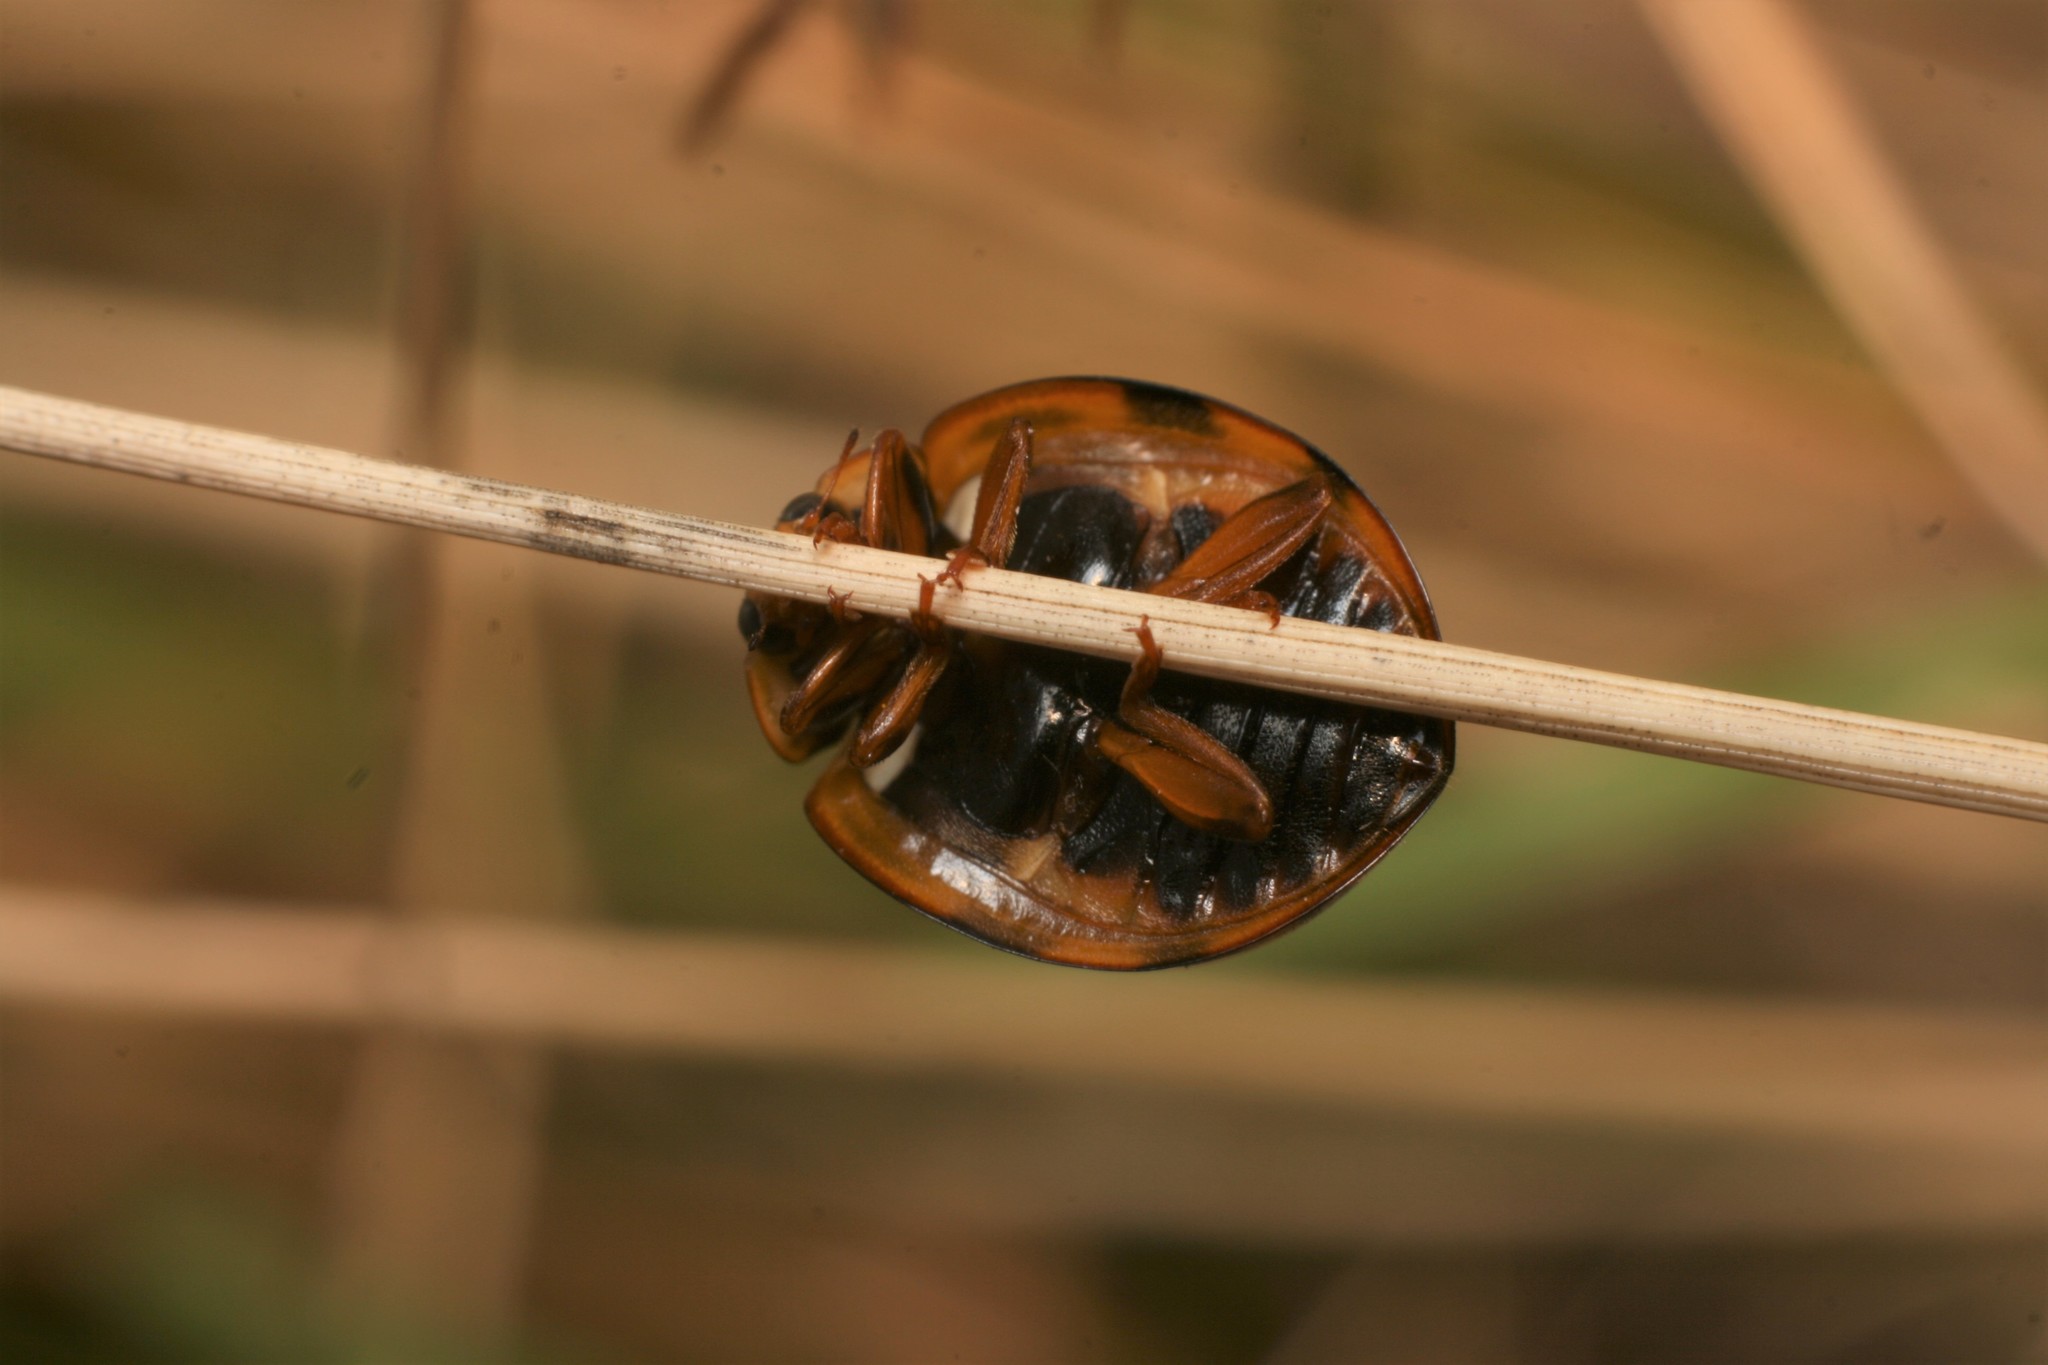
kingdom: Animalia
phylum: Arthropoda
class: Insecta
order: Coleoptera
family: Coccinellidae
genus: Harmonia
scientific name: Harmonia conformis
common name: Common spotted ladybird beetle
